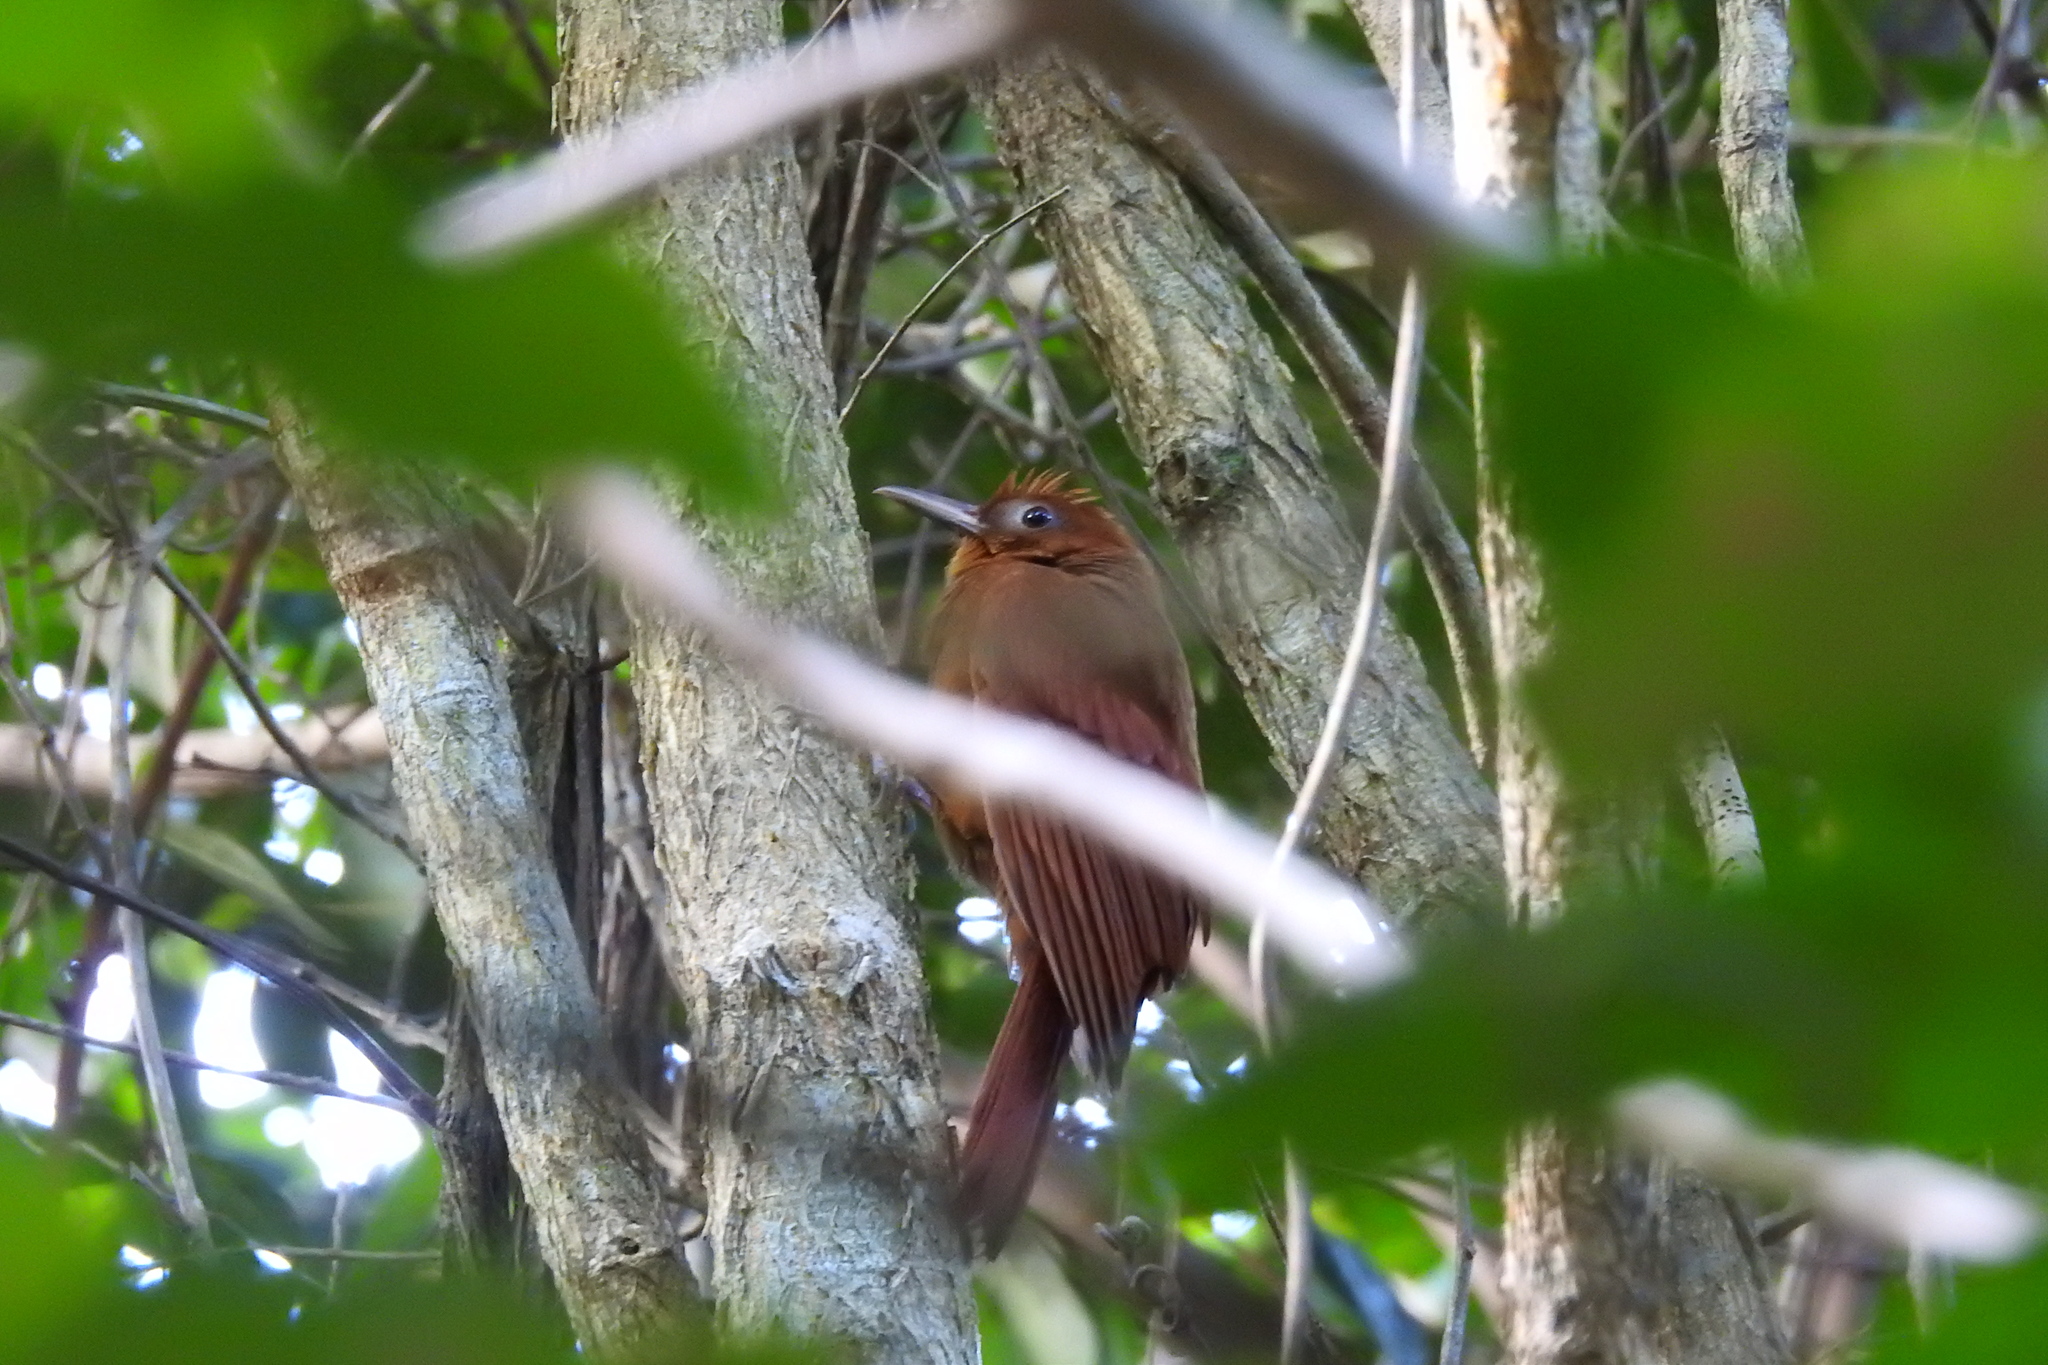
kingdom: Animalia
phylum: Chordata
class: Aves
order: Passeriformes
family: Furnariidae
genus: Dendrocincla
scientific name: Dendrocincla homochroa
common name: Ruddy woodcreeper
